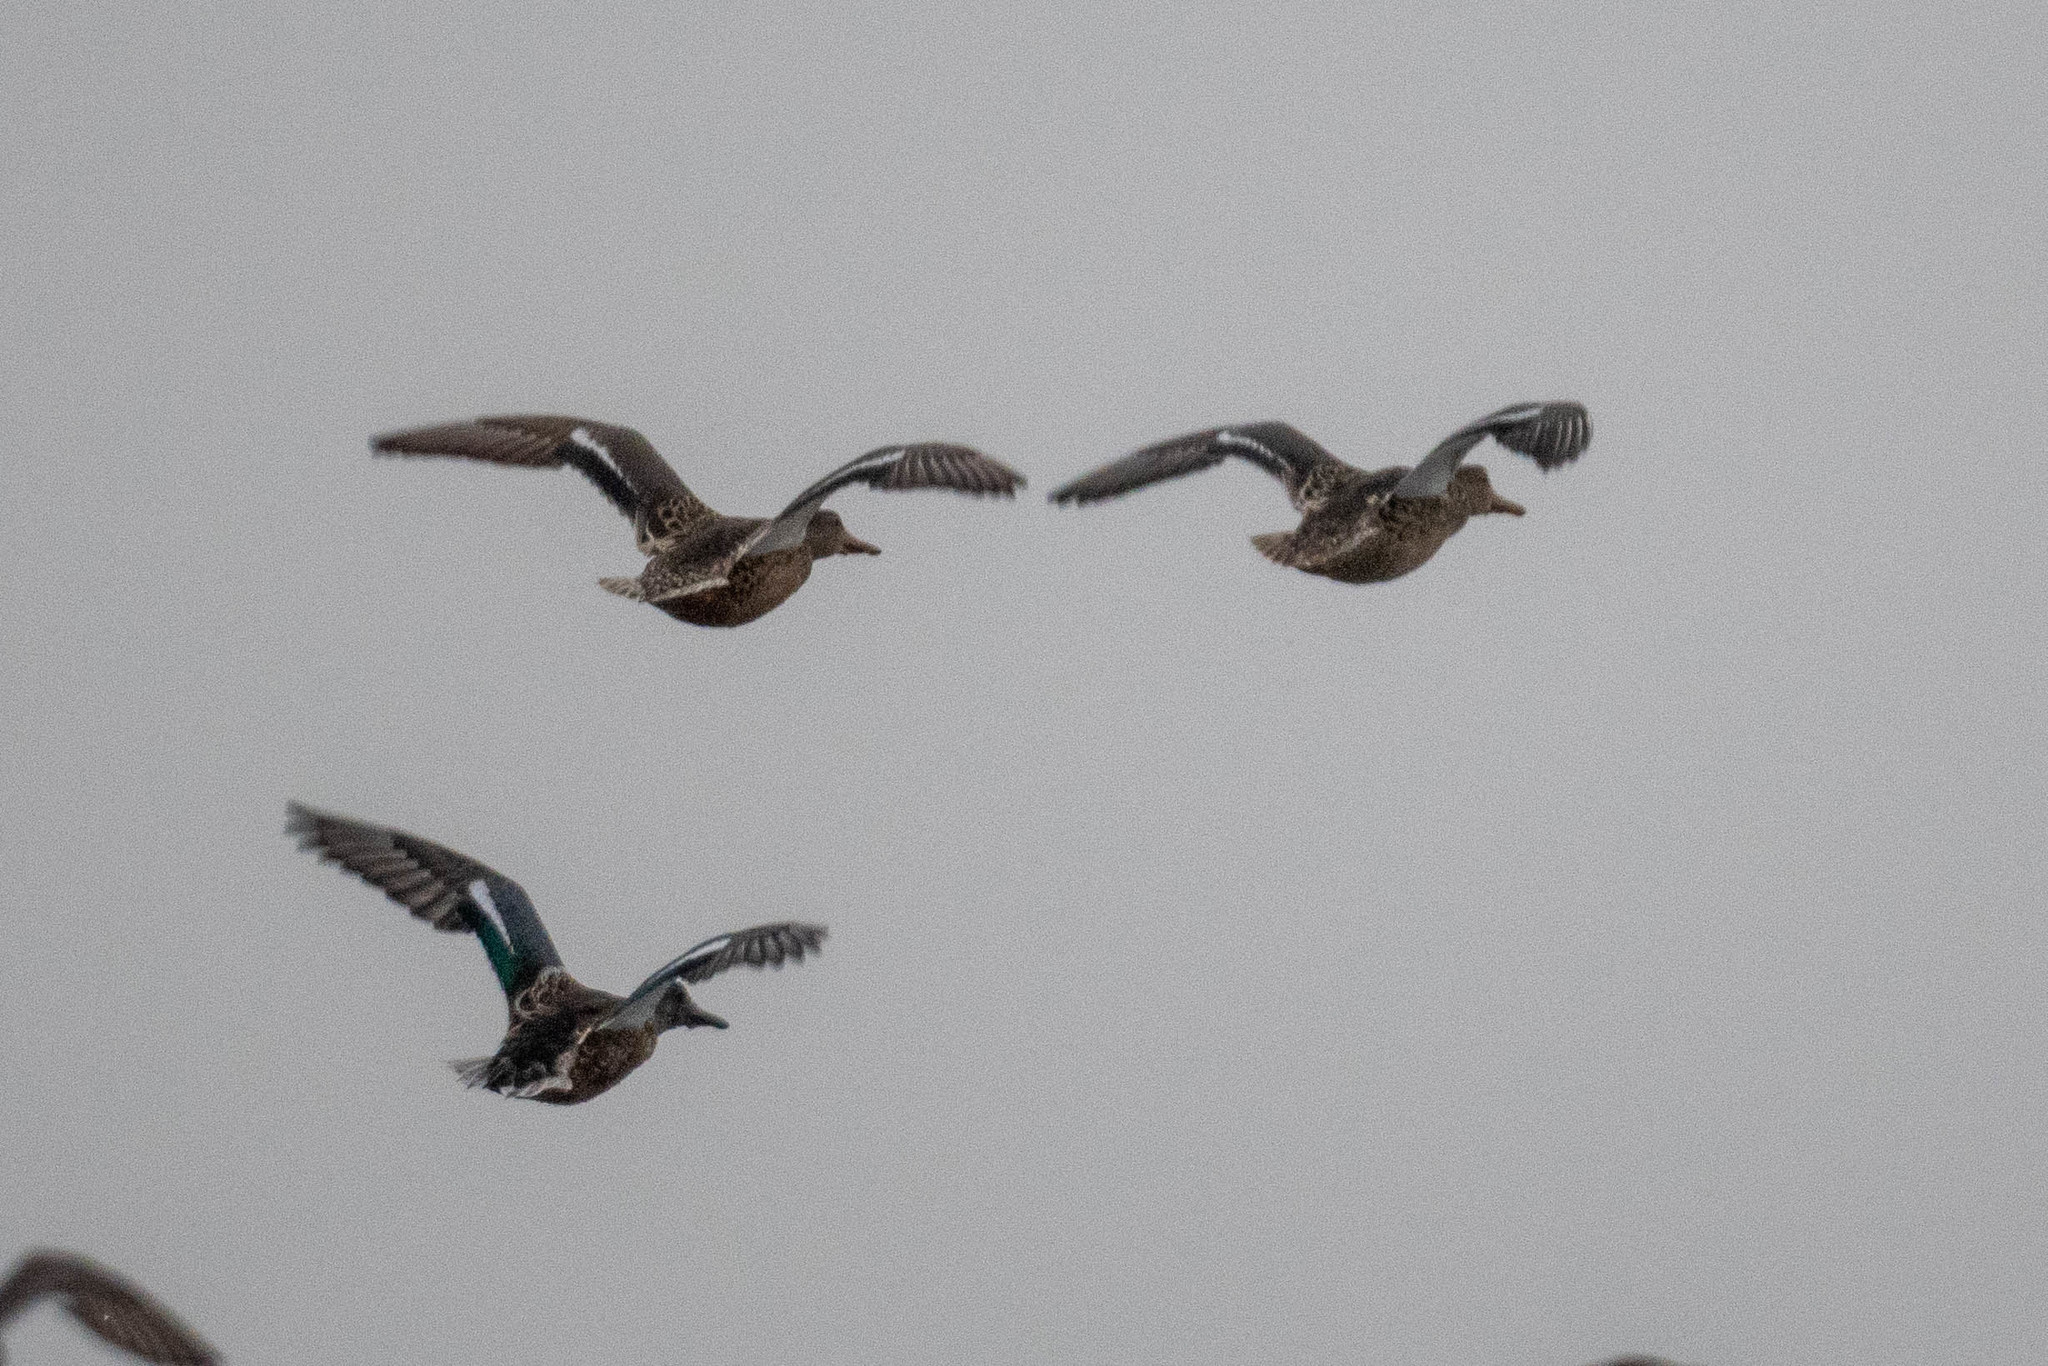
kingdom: Animalia
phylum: Chordata
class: Aves
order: Anseriformes
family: Anatidae
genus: Spatula
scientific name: Spatula clypeata
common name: Northern shoveler
